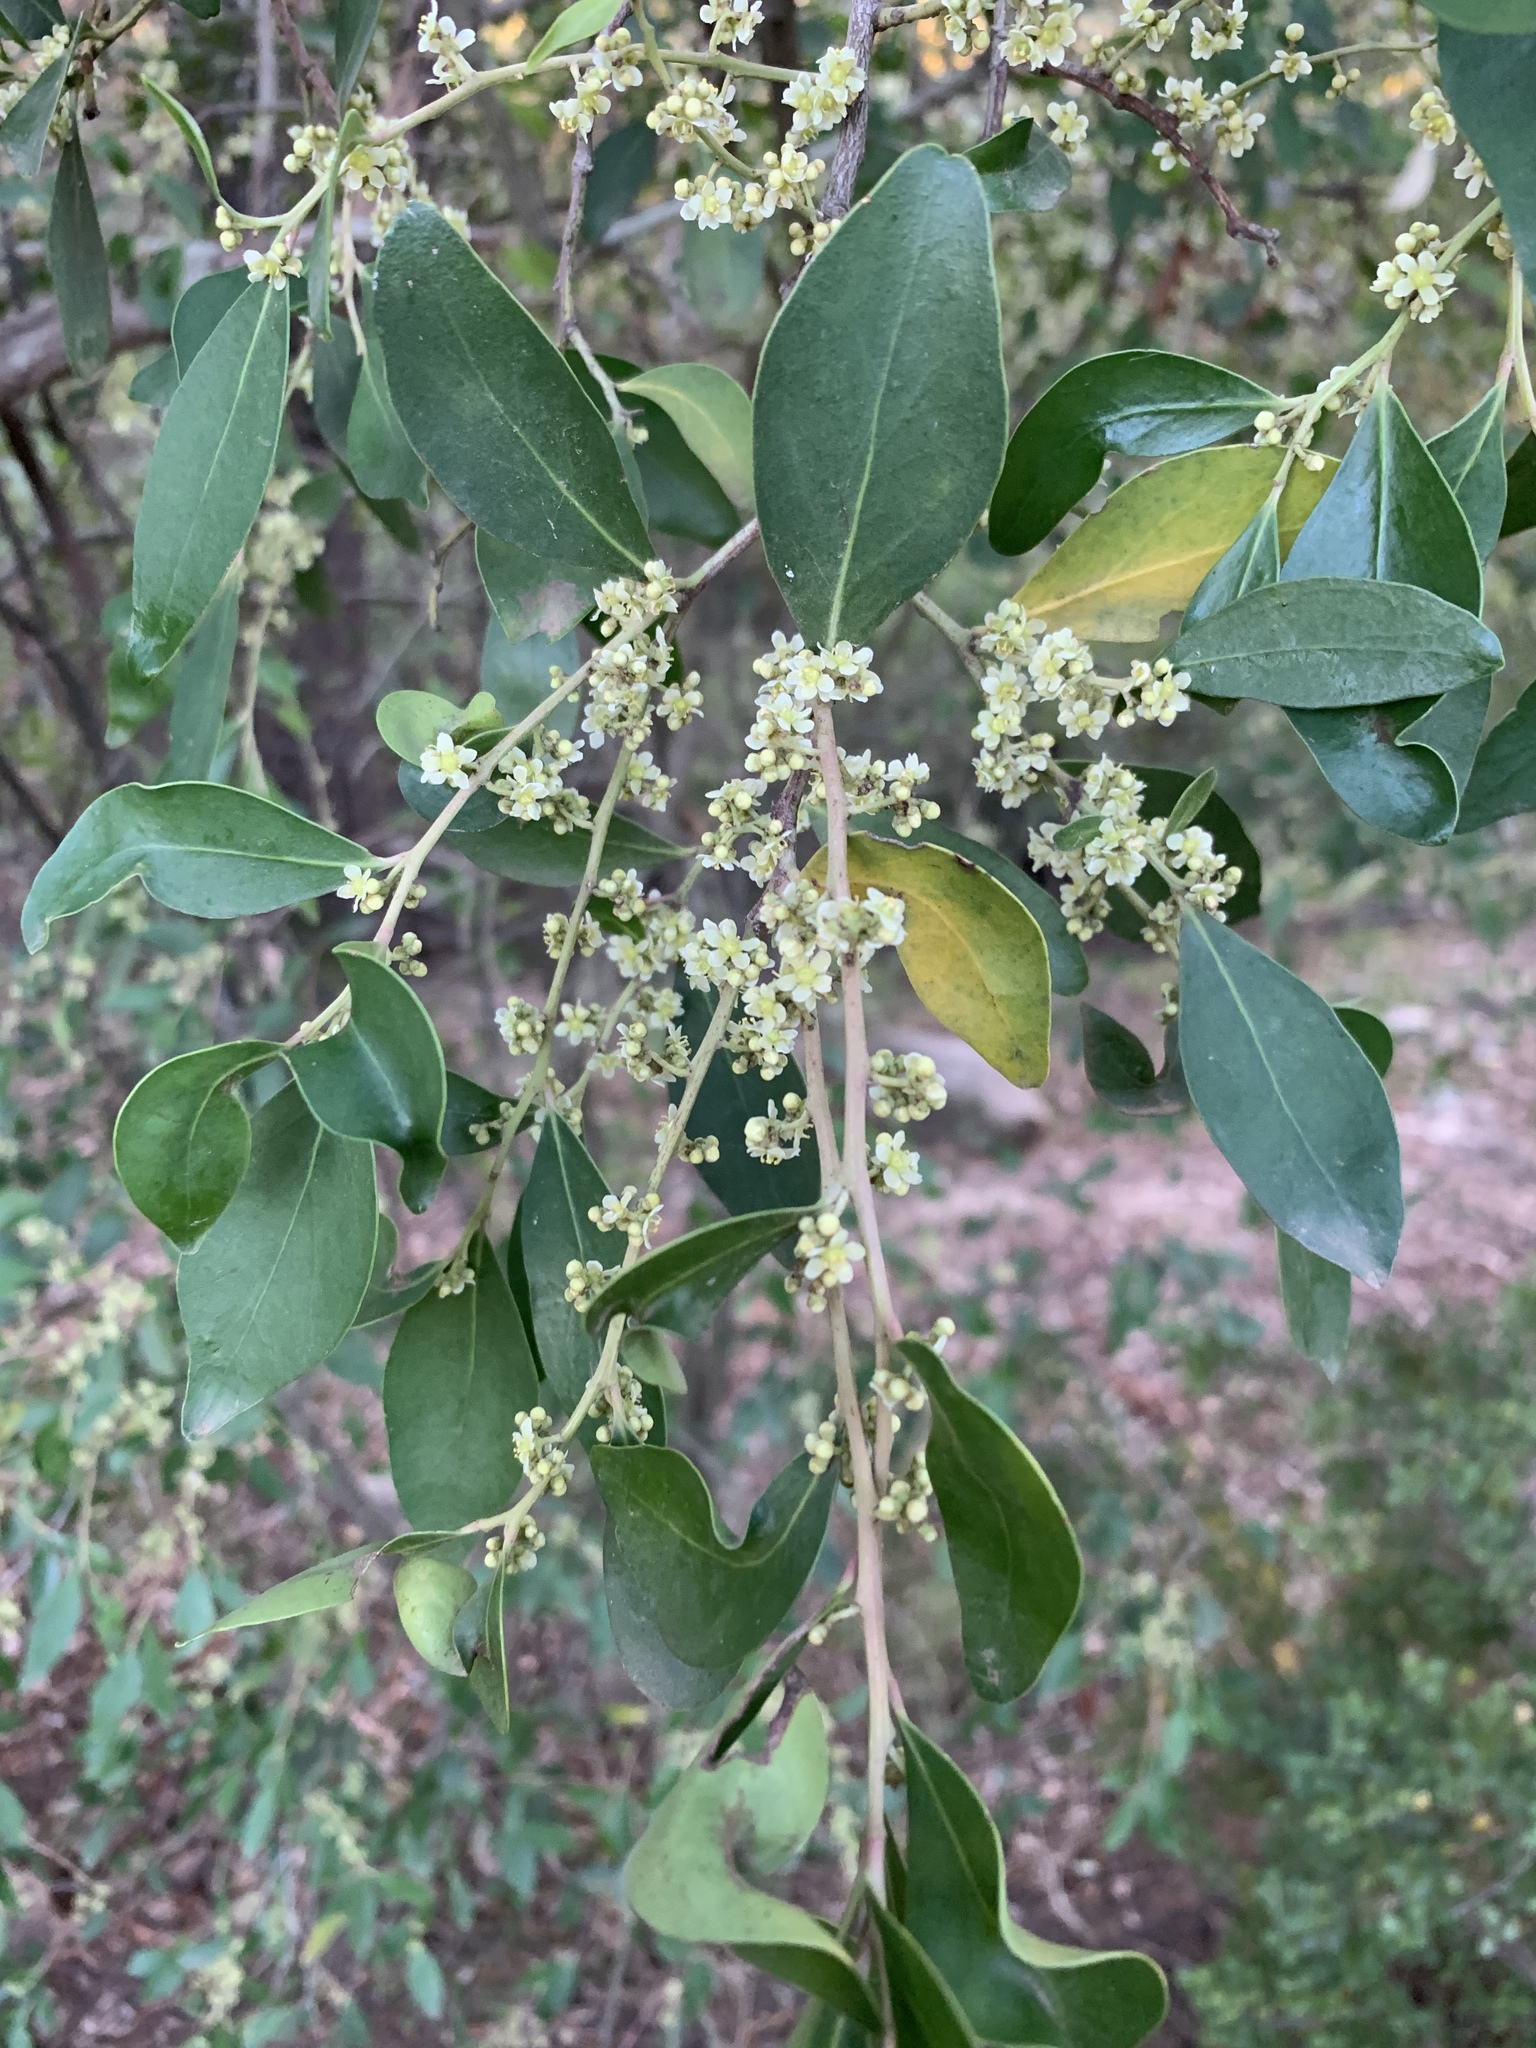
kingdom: Plantae
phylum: Tracheophyta
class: Magnoliopsida
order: Celastrales
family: Celastraceae
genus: Gymnosporia
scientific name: Gymnosporia laurina
